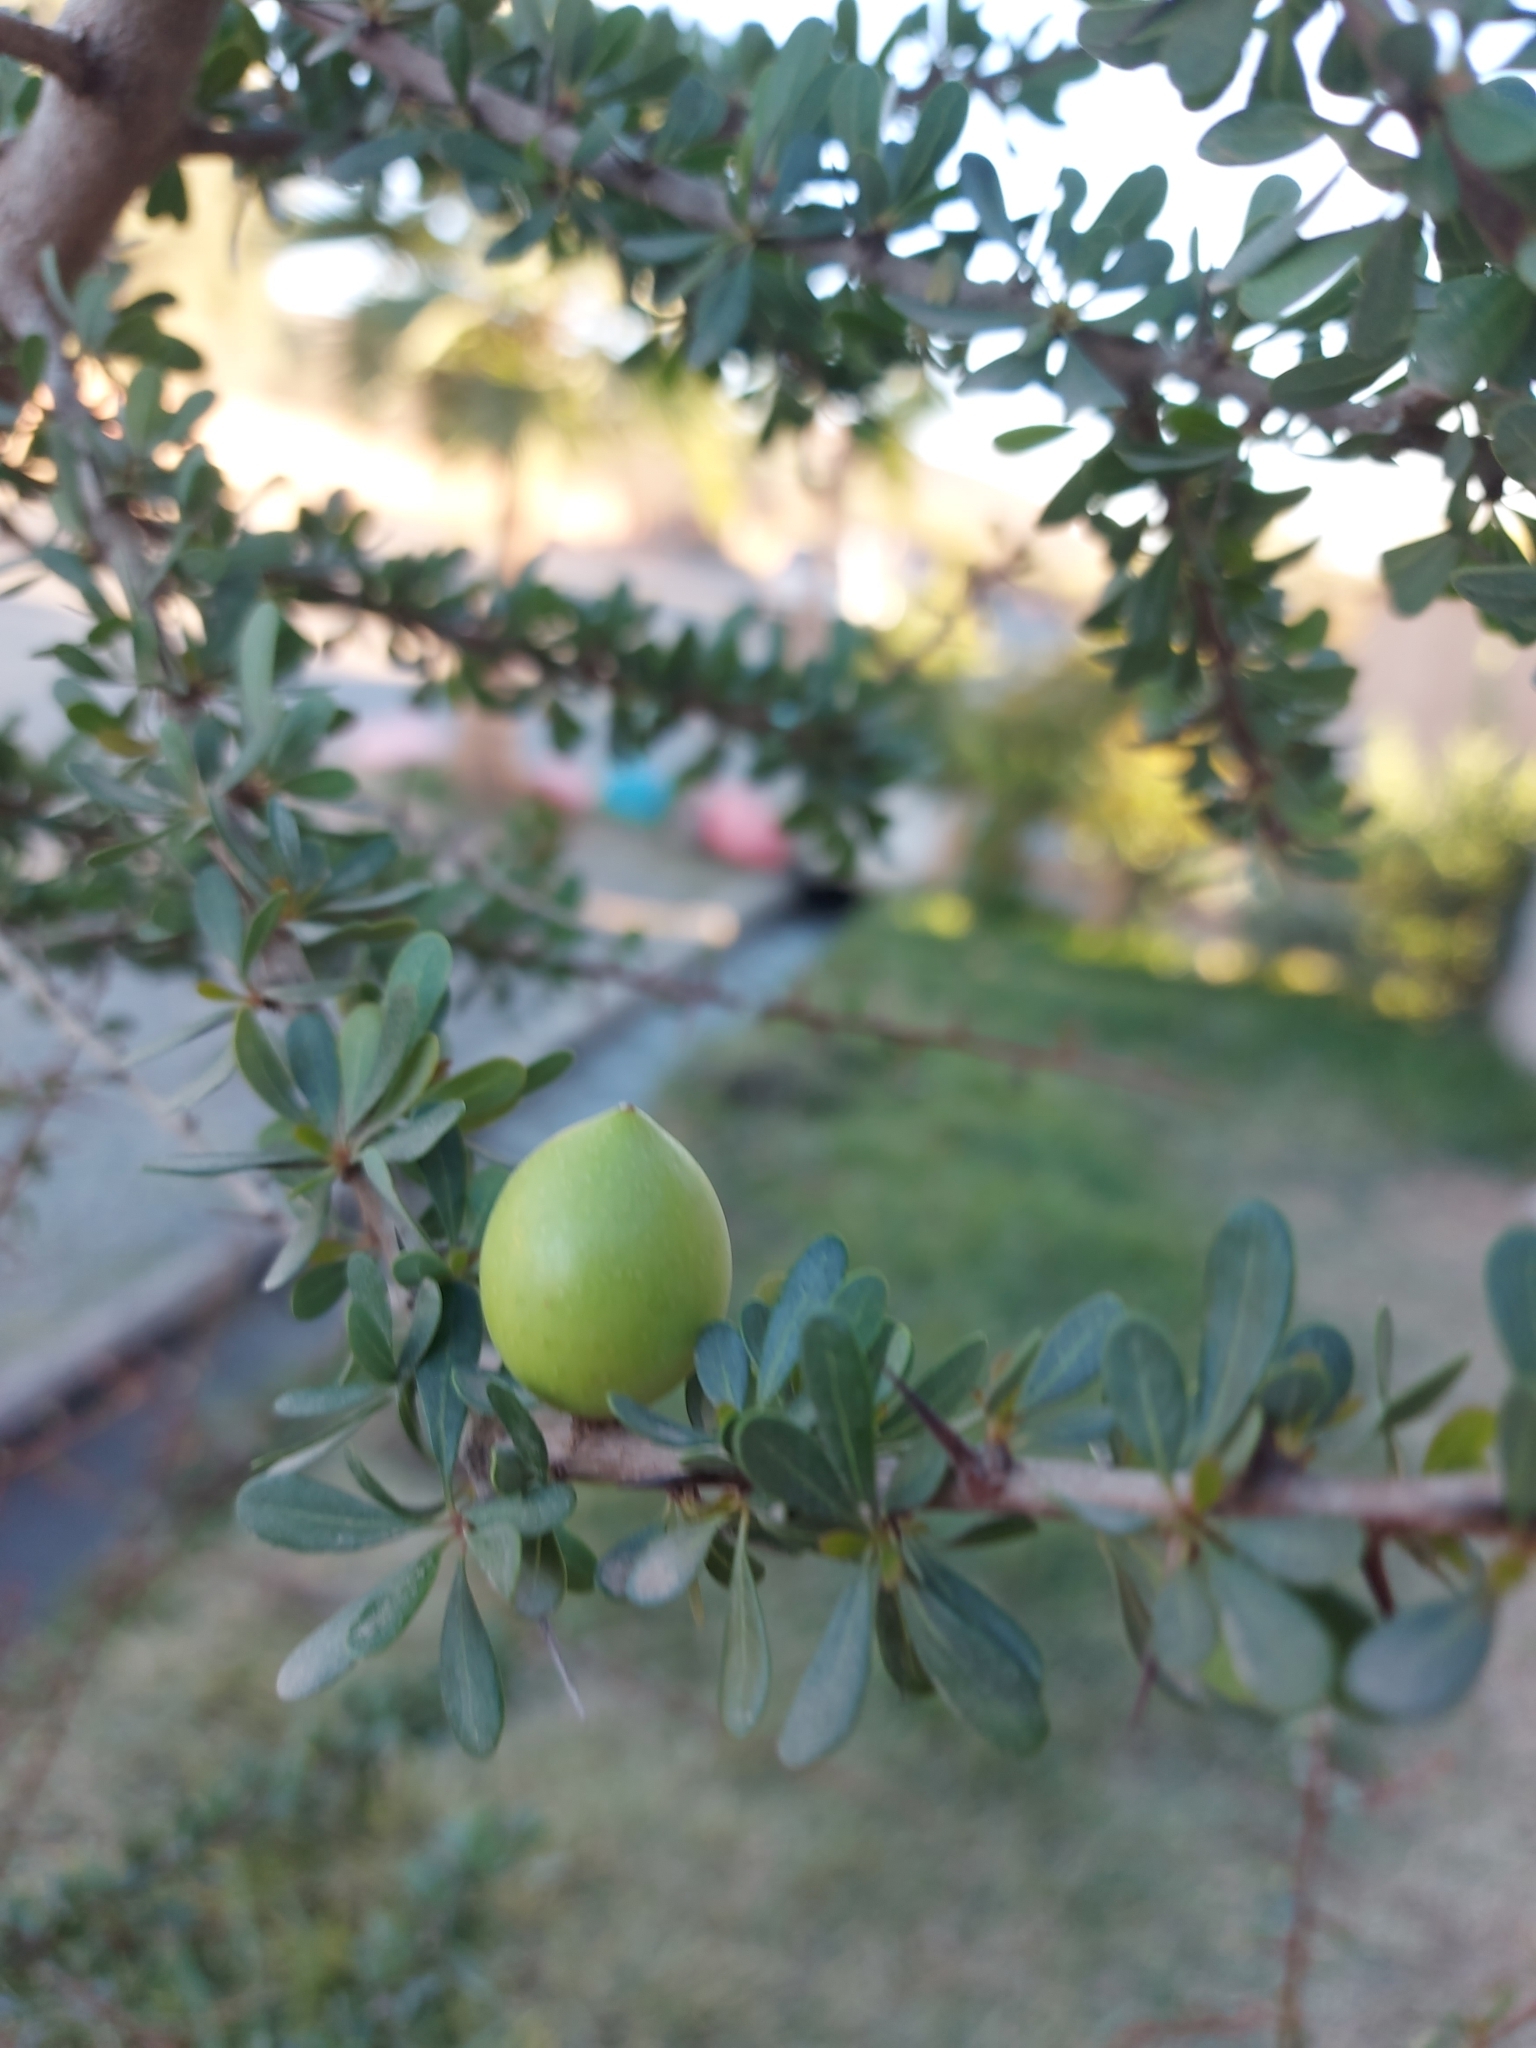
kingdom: Plantae
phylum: Tracheophyta
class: Magnoliopsida
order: Ericales
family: Sapotaceae
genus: Sideroxylon
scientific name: Sideroxylon spinosum
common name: Argan
